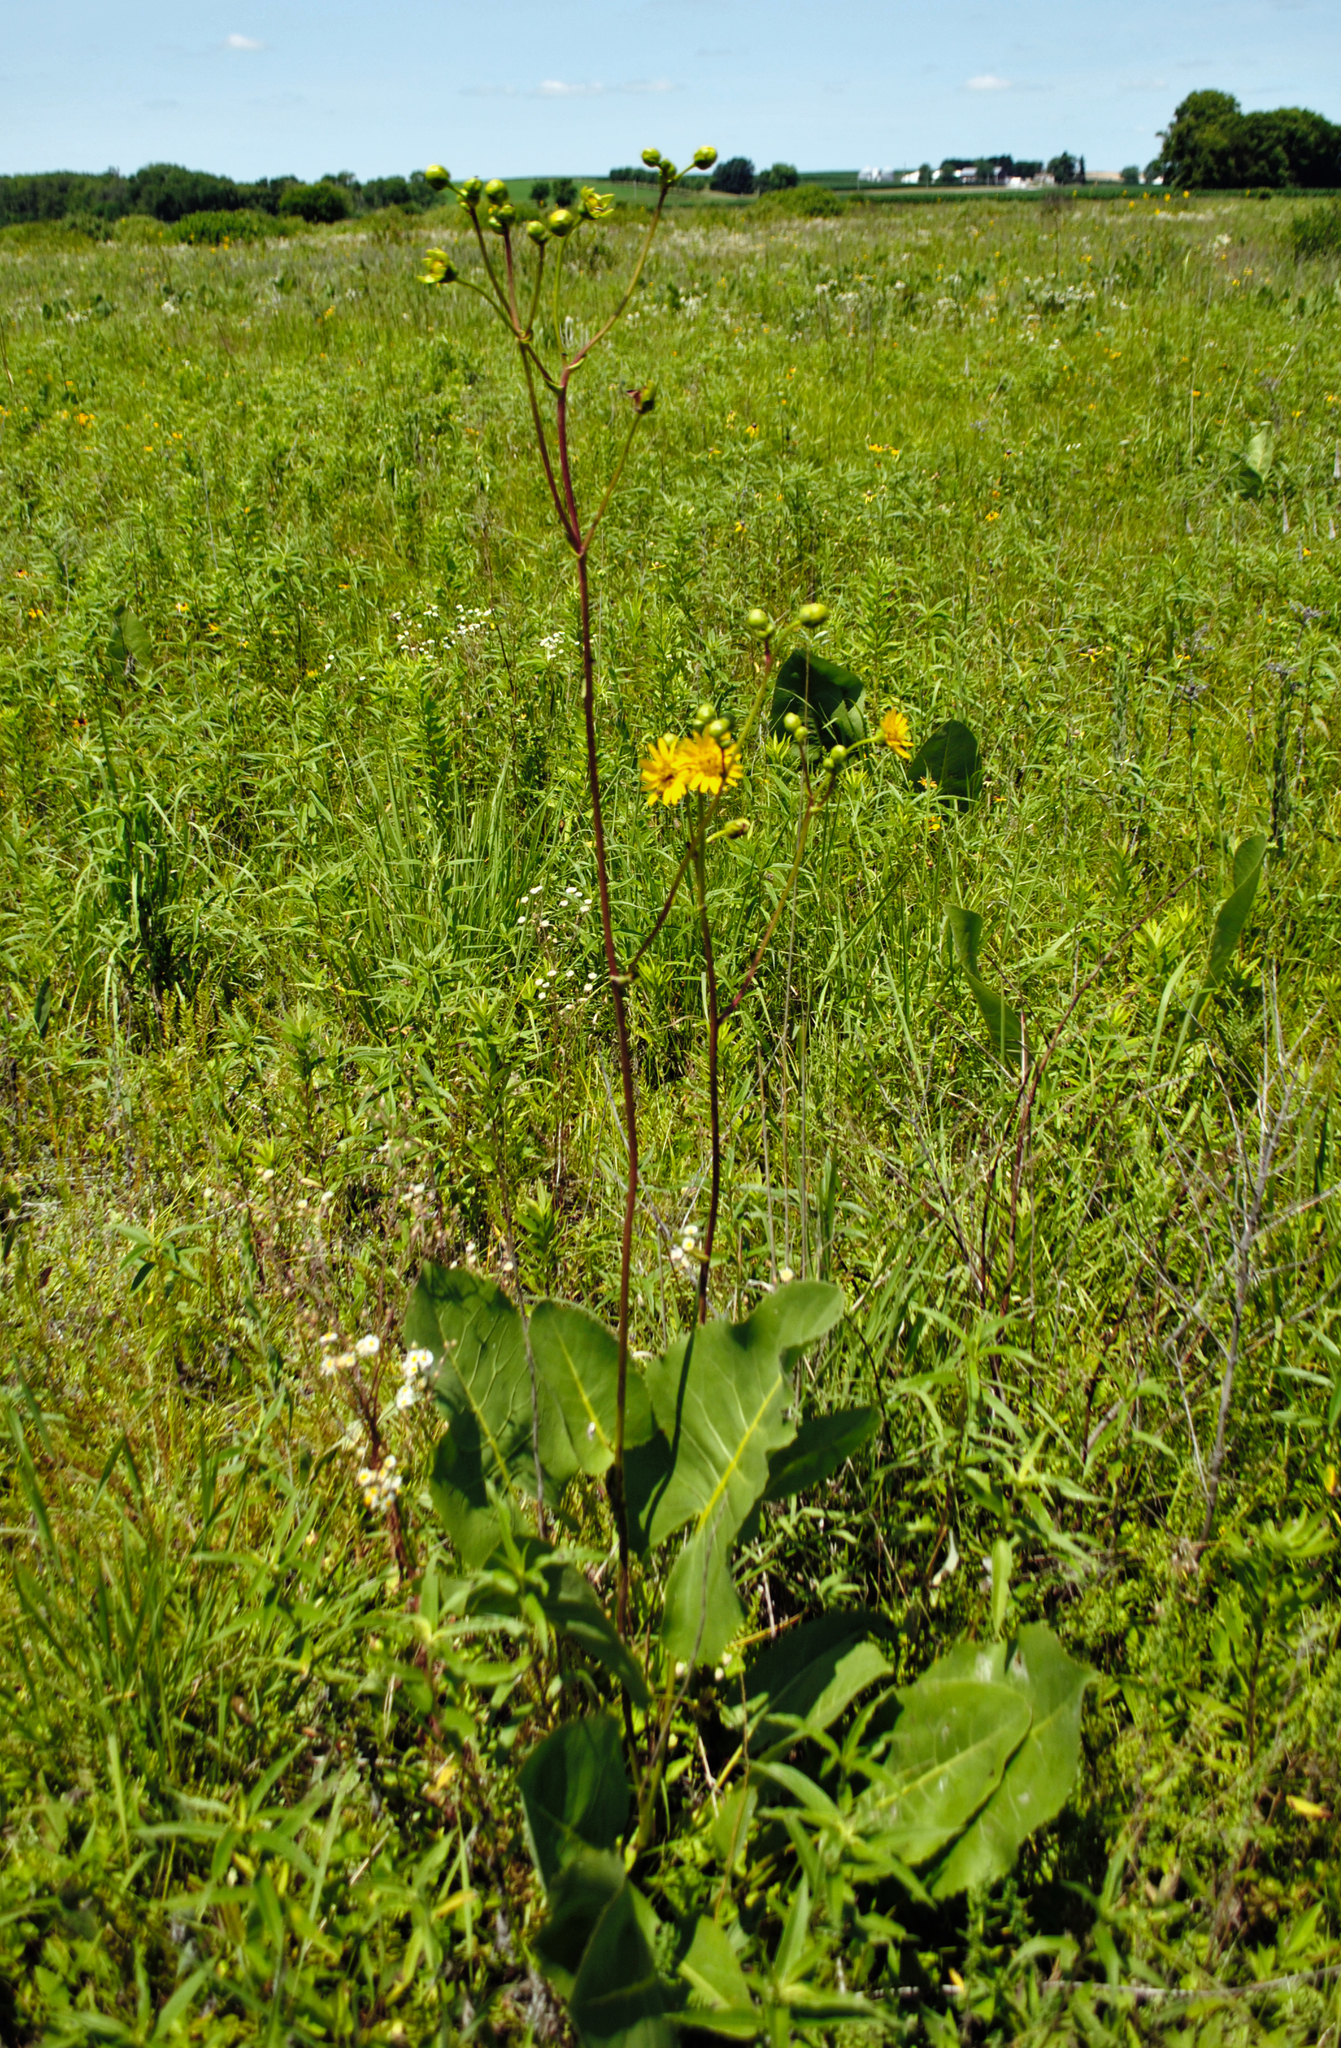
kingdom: Plantae
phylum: Tracheophyta
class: Magnoliopsida
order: Asterales
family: Asteraceae
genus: Silphium
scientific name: Silphium terebinthinaceum
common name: Basal-leaf rosinweed
